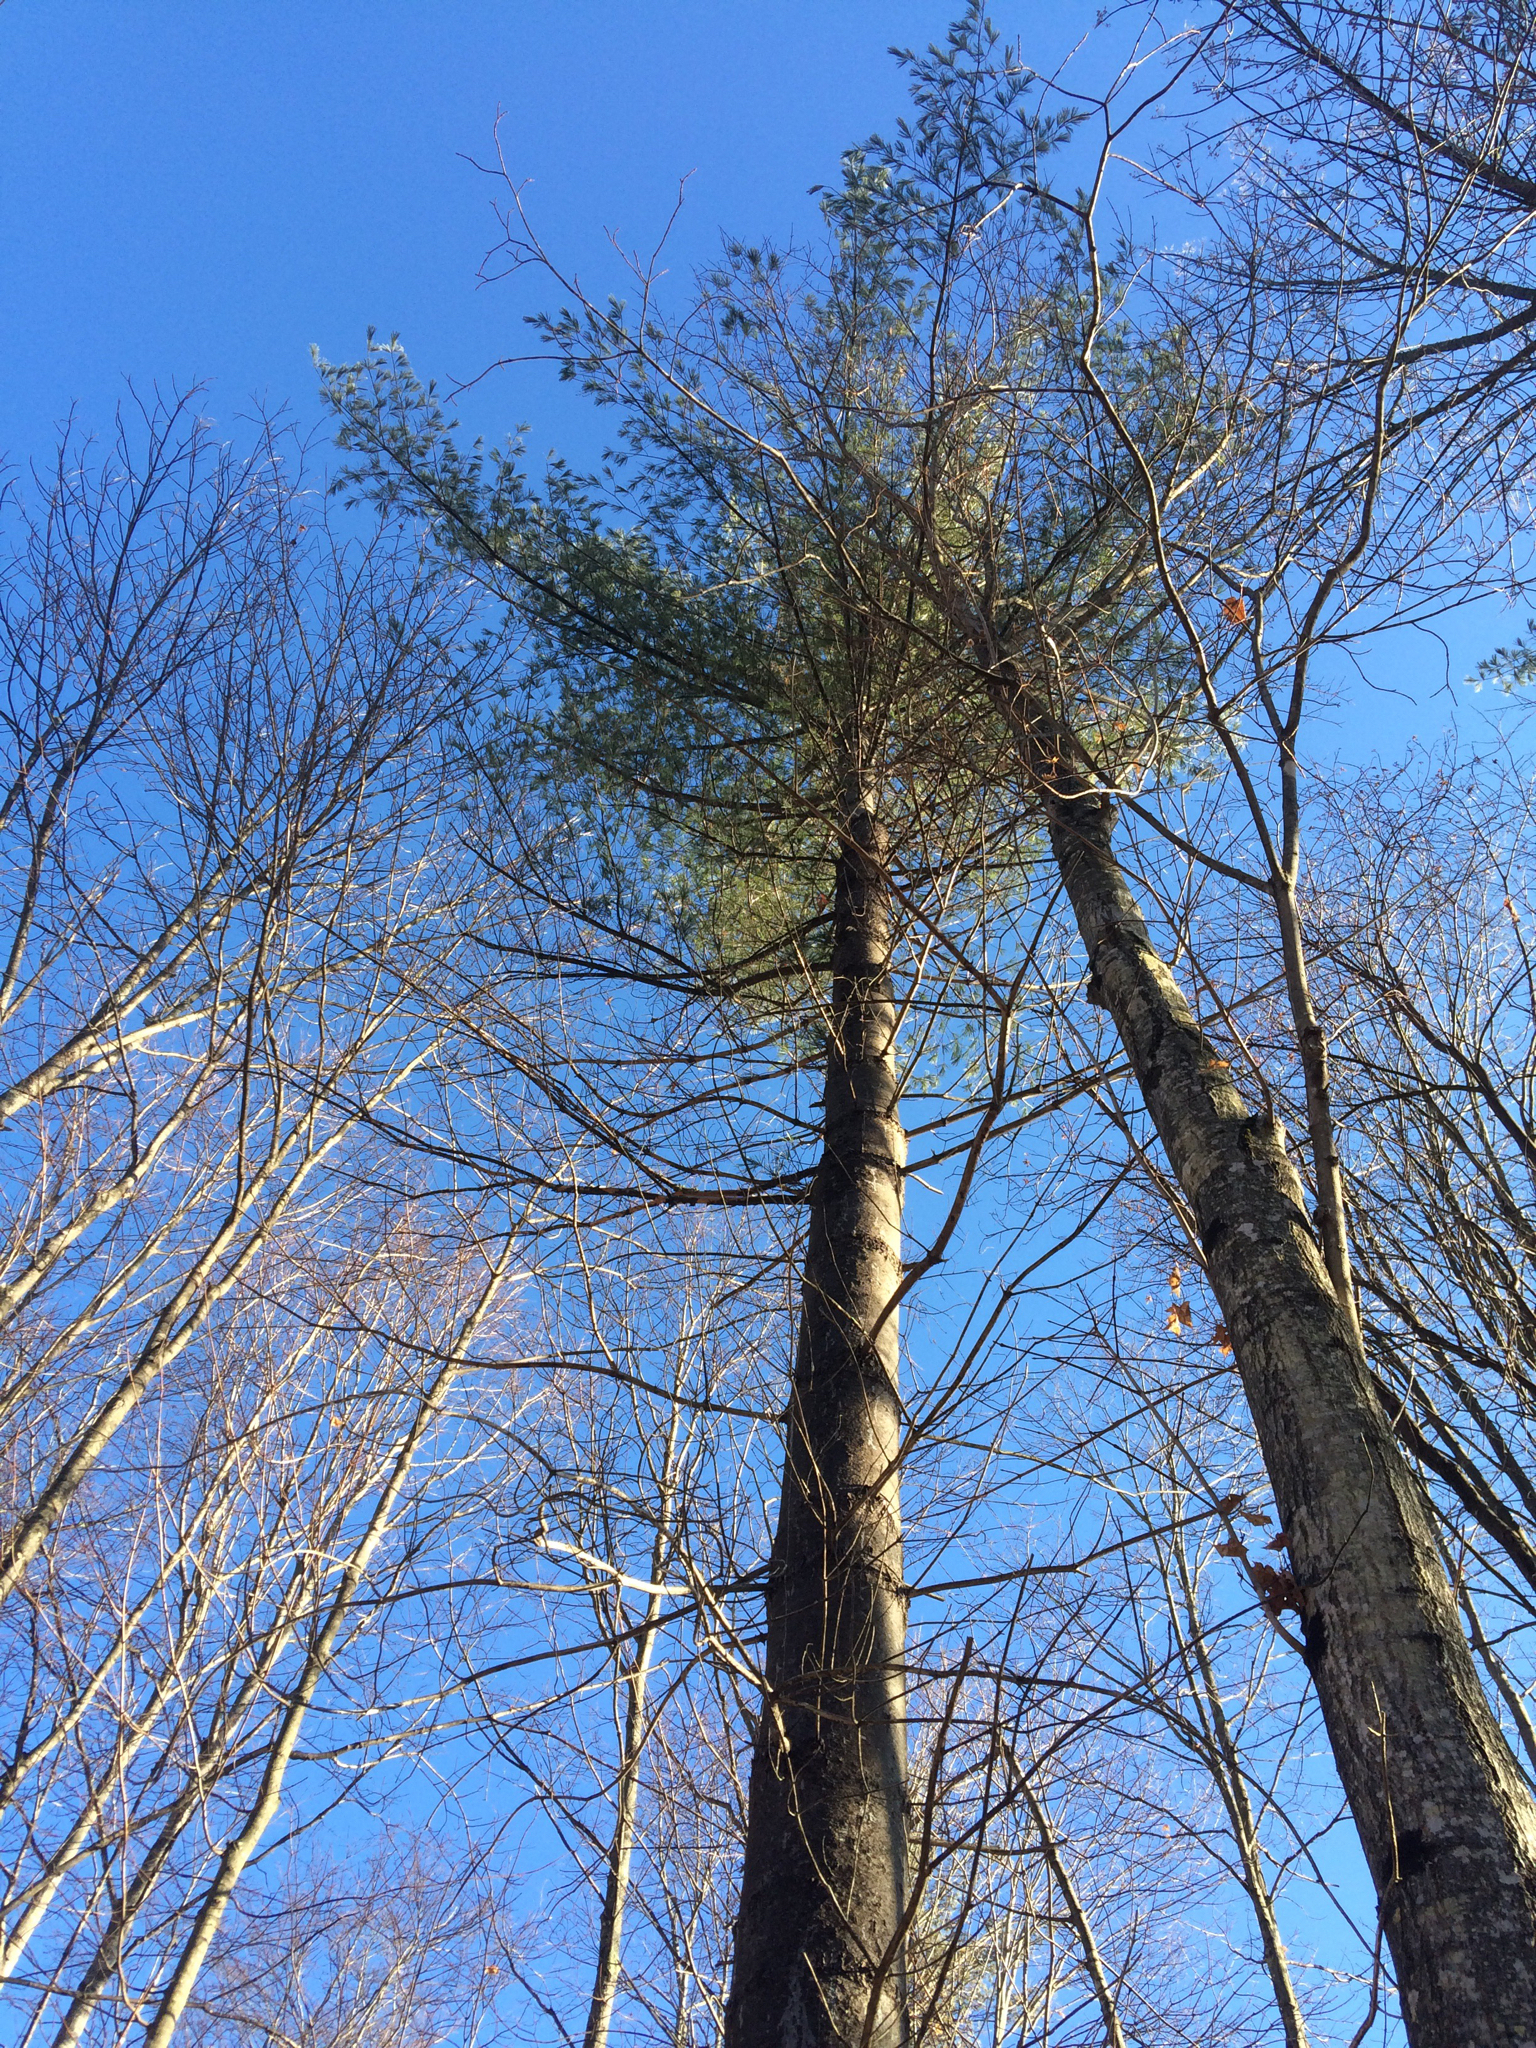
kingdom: Plantae
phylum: Tracheophyta
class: Pinopsida
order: Pinales
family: Pinaceae
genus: Pinus
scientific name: Pinus strobus
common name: Weymouth pine
